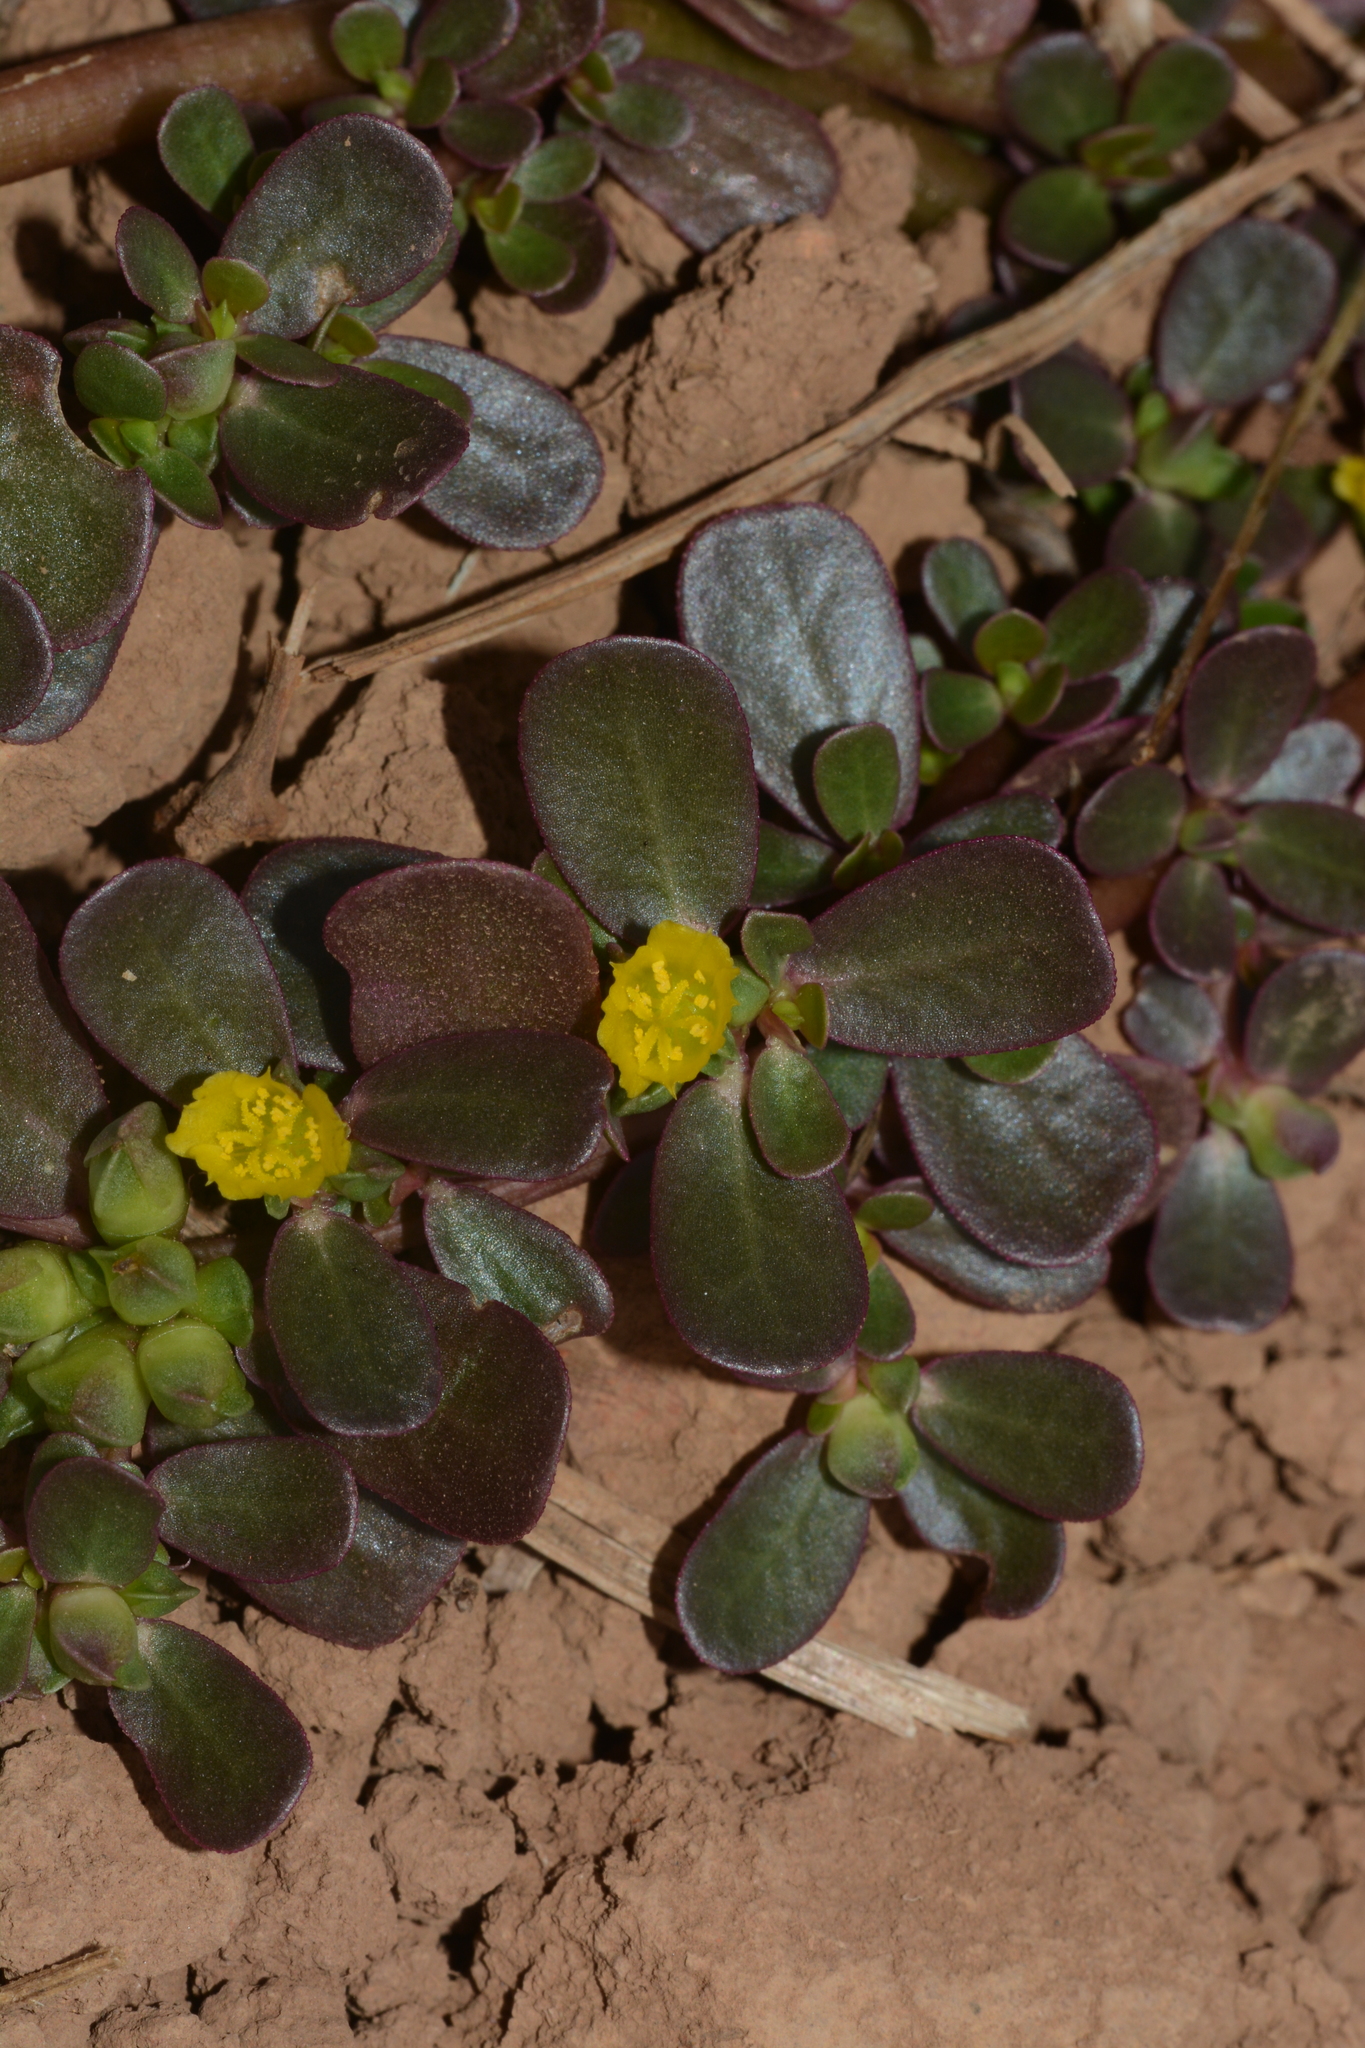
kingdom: Plantae
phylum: Tracheophyta
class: Magnoliopsida
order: Caryophyllales
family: Portulacaceae
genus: Portulaca
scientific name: Portulaca oleracea
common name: Common purslane
